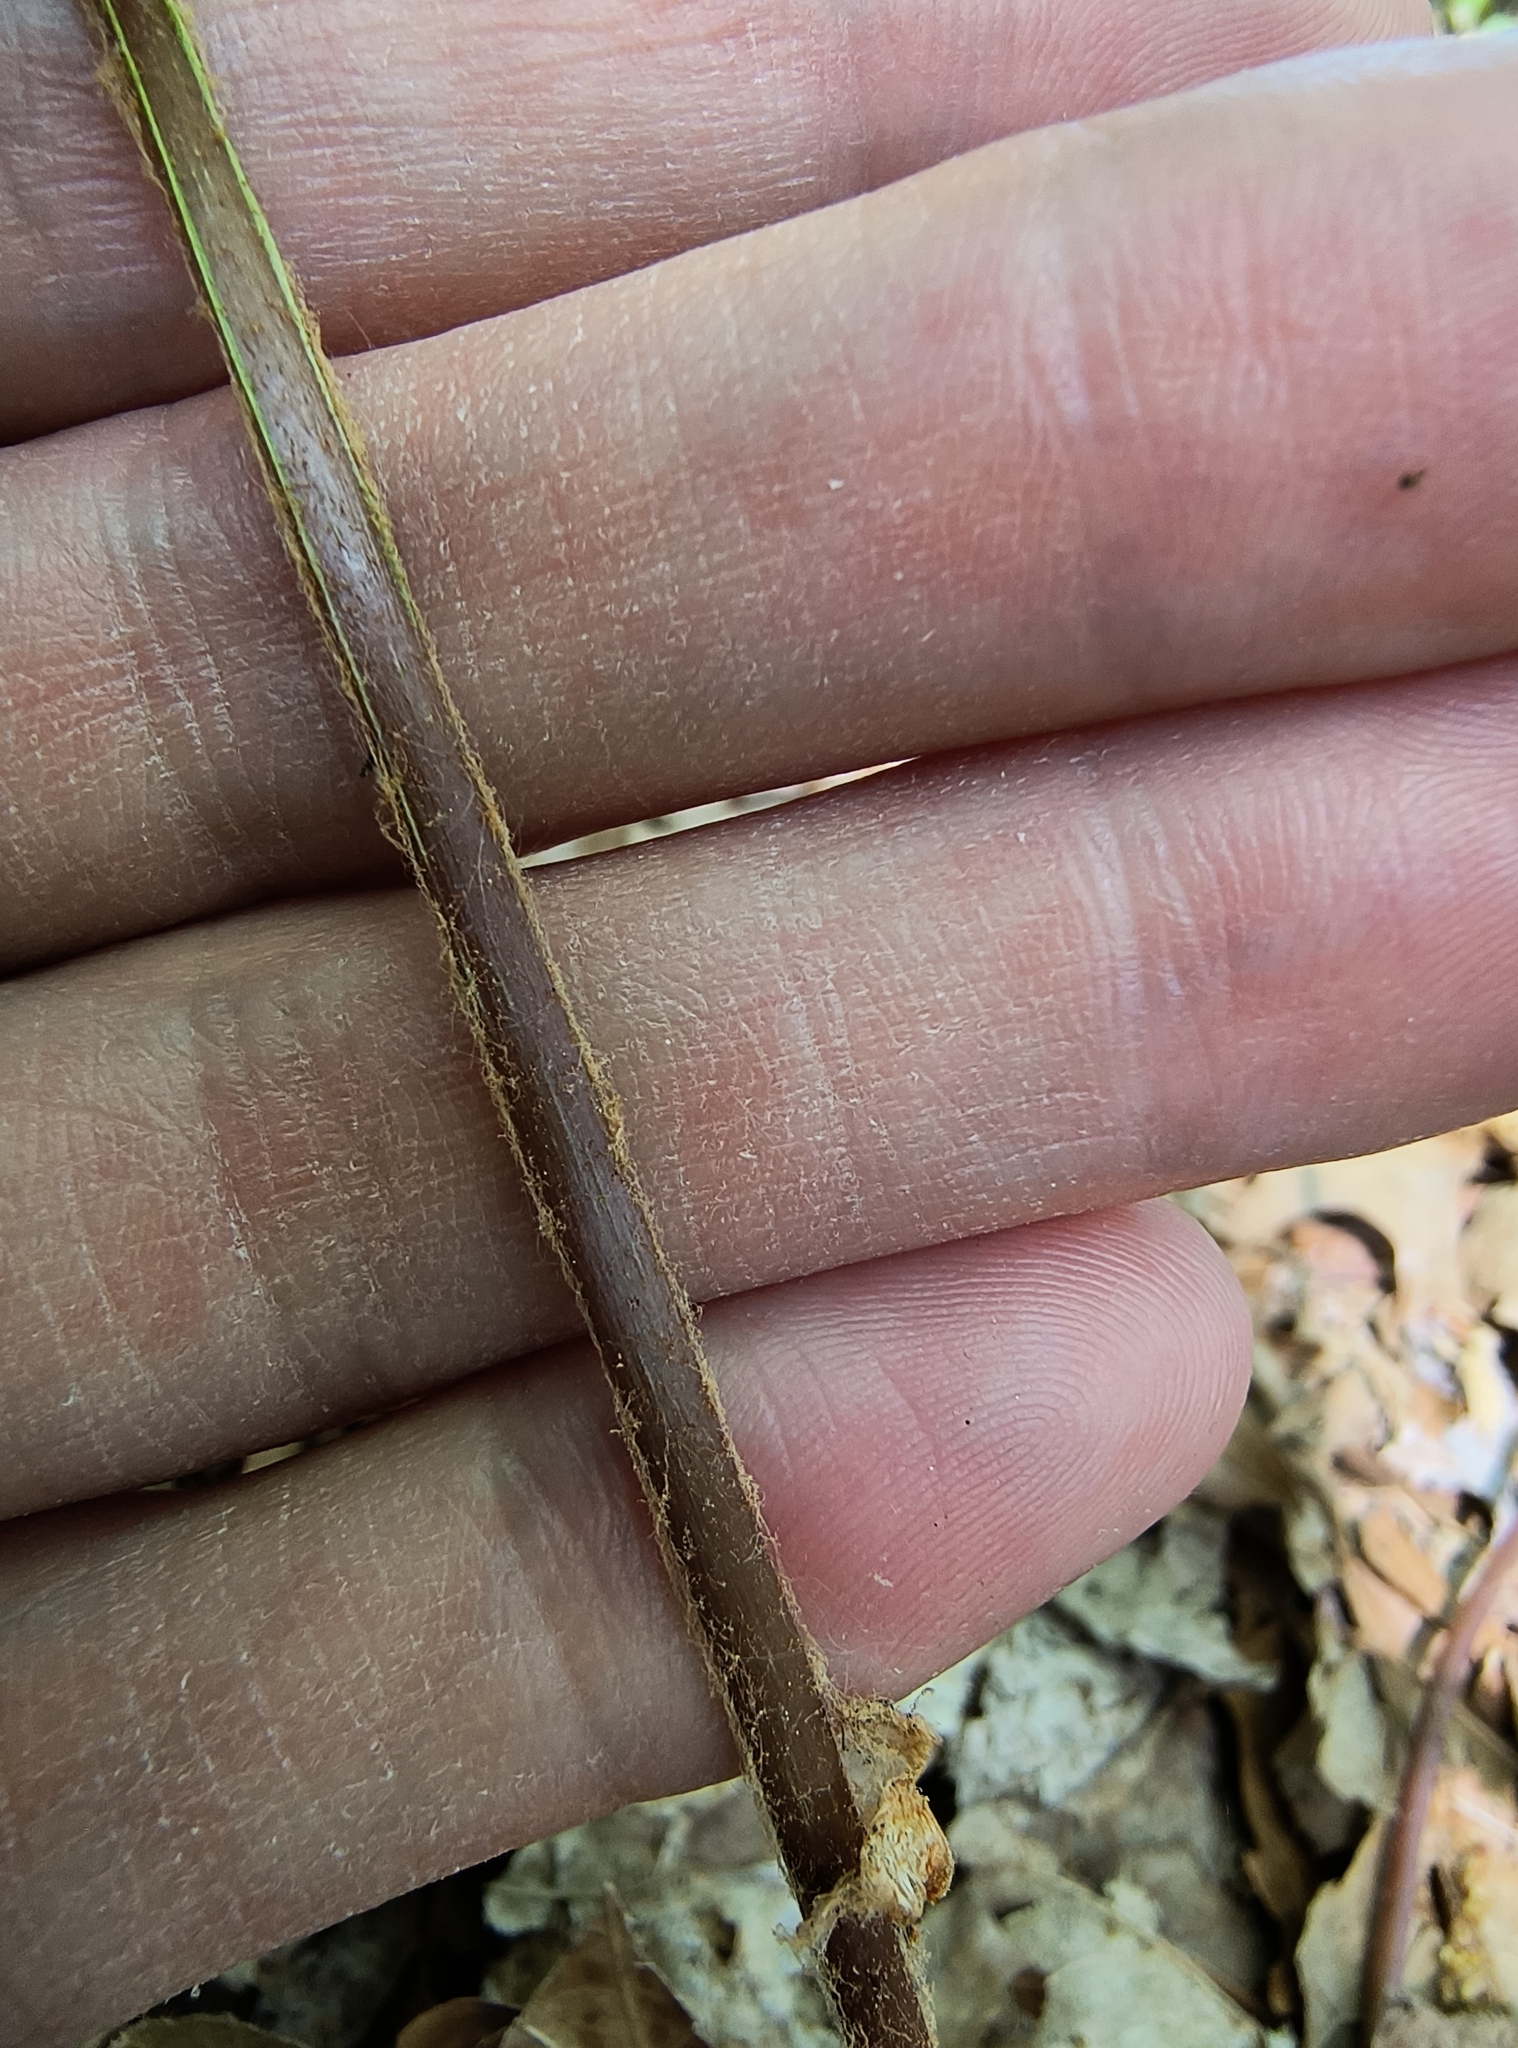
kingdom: Plantae
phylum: Tracheophyta
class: Polypodiopsida
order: Osmundales
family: Osmundaceae
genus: Osmundastrum
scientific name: Osmundastrum cinnamomeum
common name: Cinnamon fern
